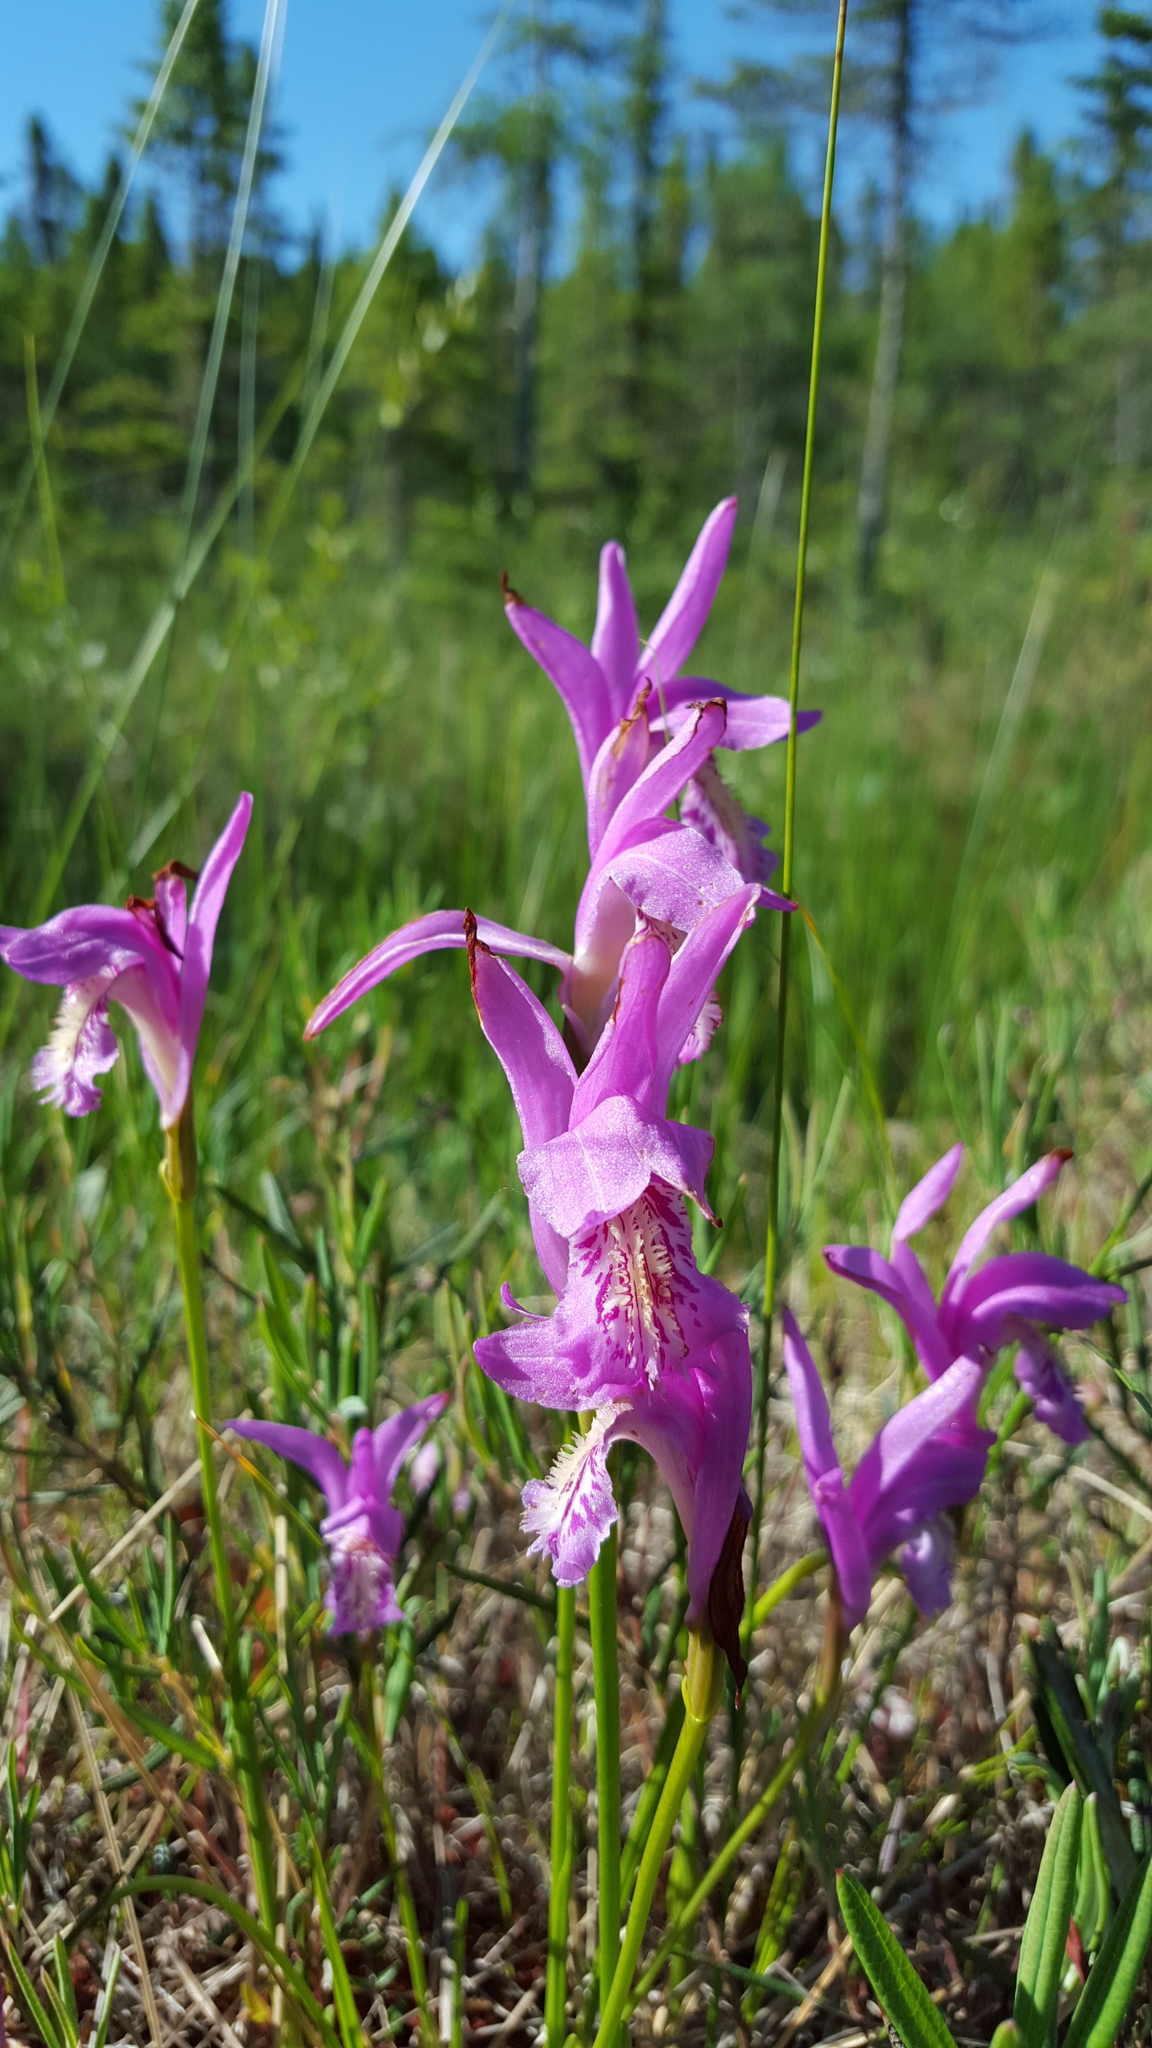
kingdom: Plantae
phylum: Tracheophyta
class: Liliopsida
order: Asparagales
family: Orchidaceae
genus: Arethusa
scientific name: Arethusa bulbosa
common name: Arethusa
